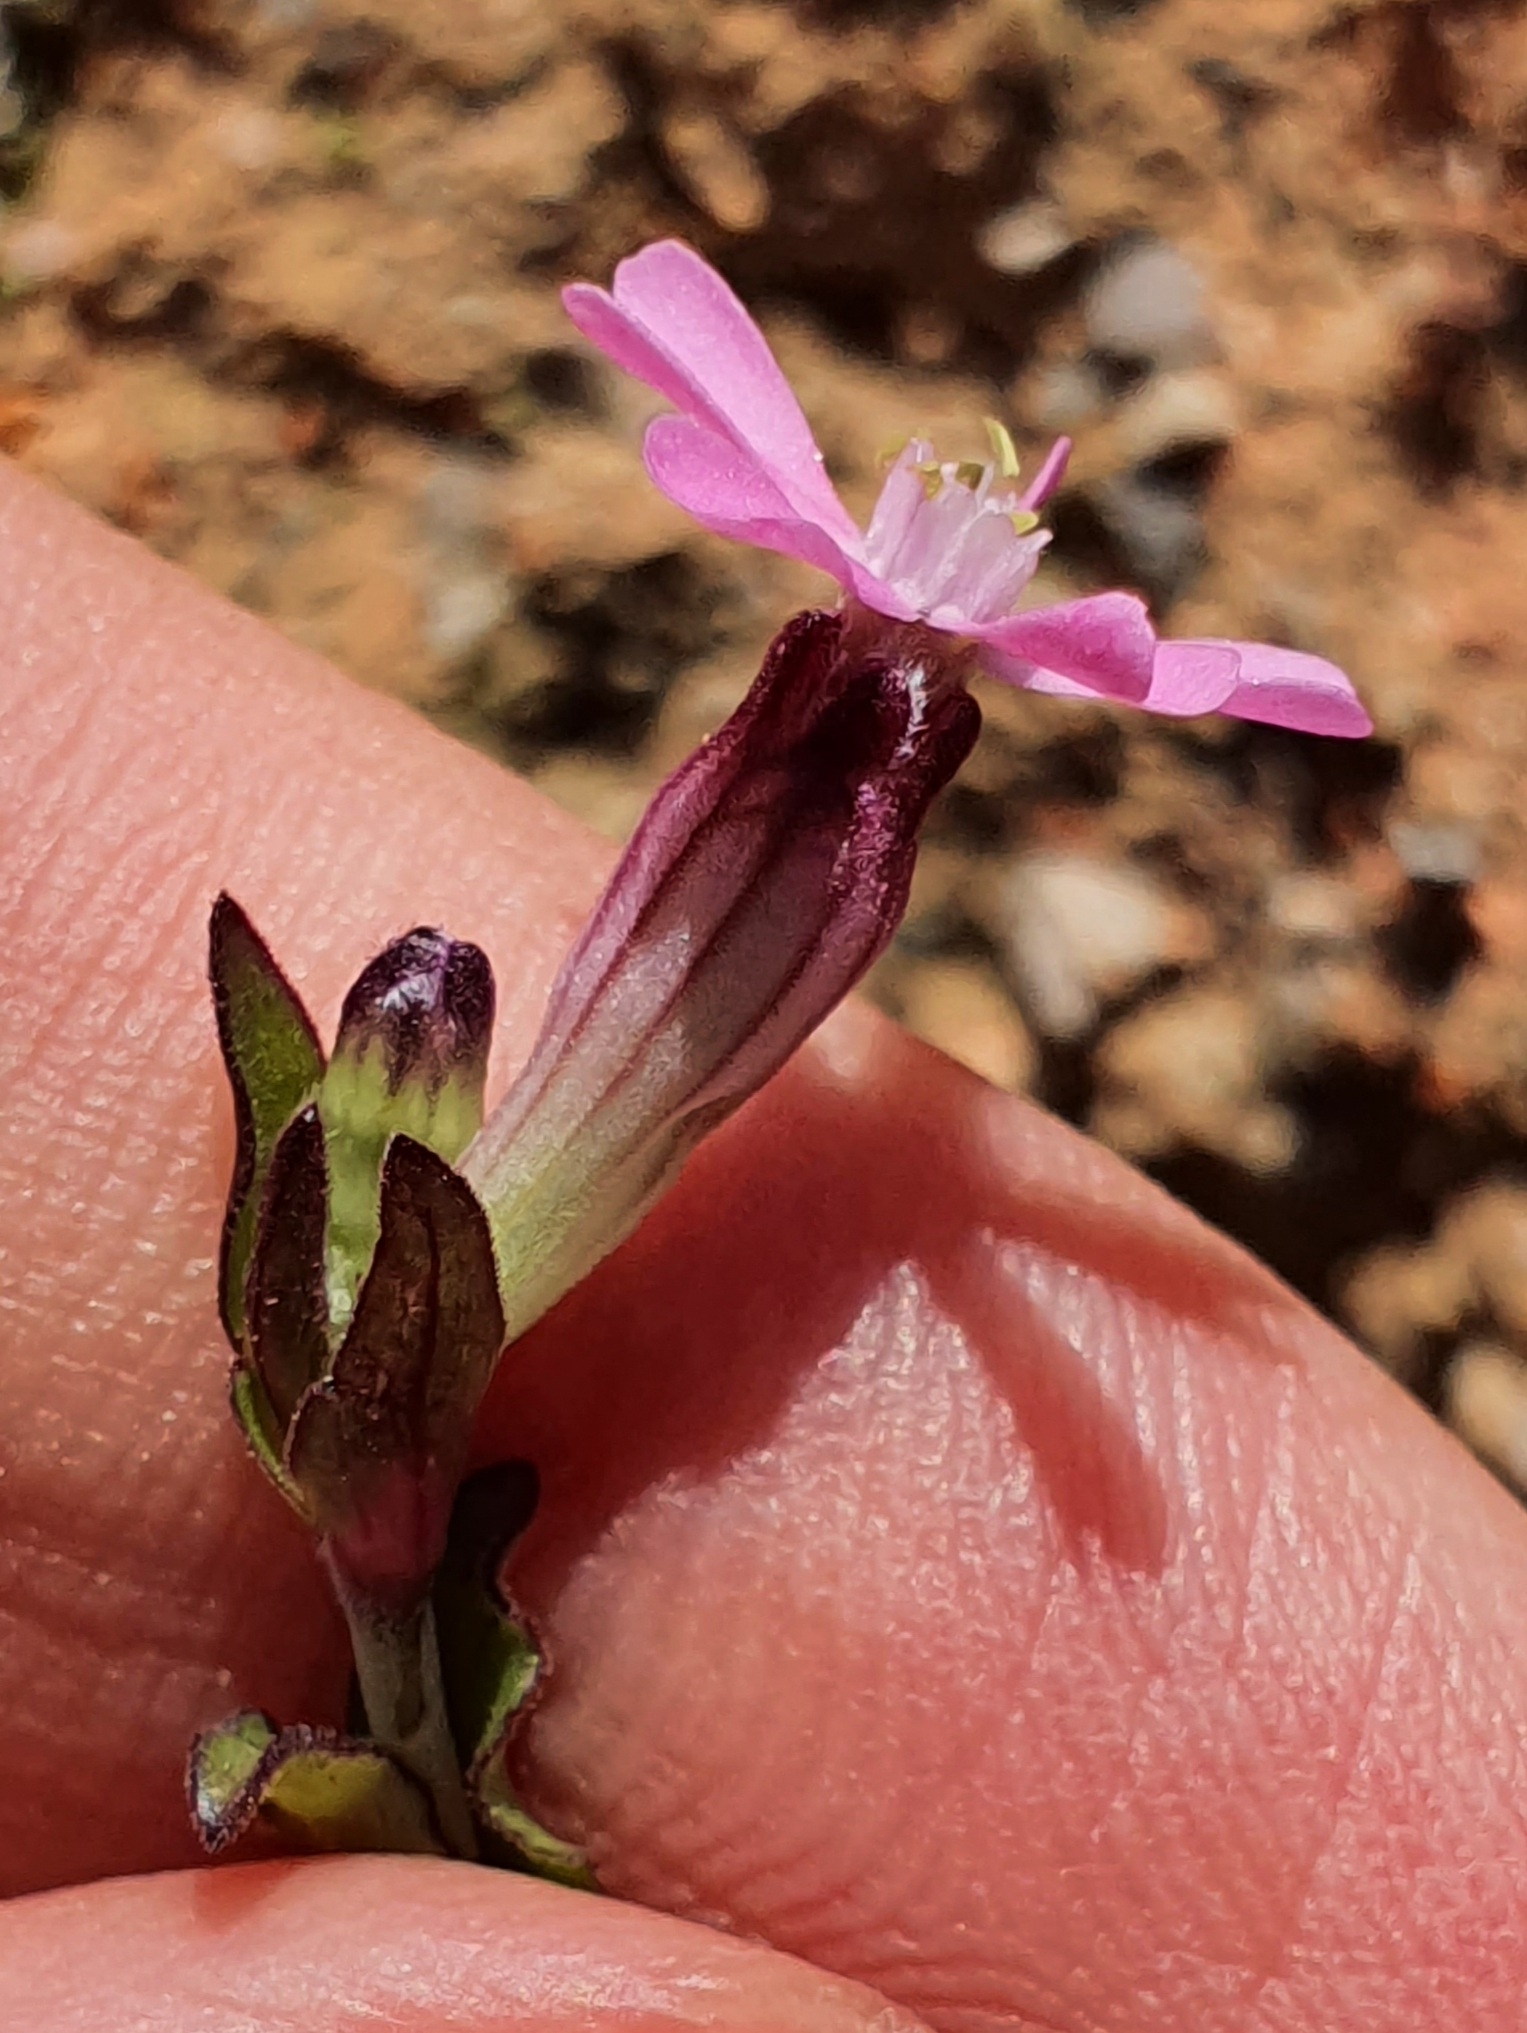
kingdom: Plantae
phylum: Tracheophyta
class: Magnoliopsida
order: Caryophyllales
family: Caryophyllaceae
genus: Silene
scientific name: Silene diversifolia
